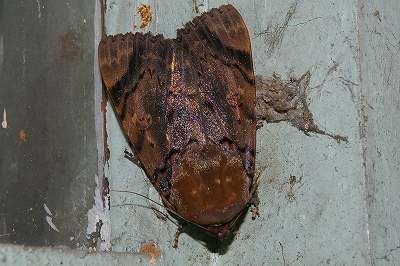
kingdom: Animalia
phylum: Arthropoda
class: Insecta
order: Lepidoptera
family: Erebidae
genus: Arcte
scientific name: Arcte coerula
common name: Ramie moth
